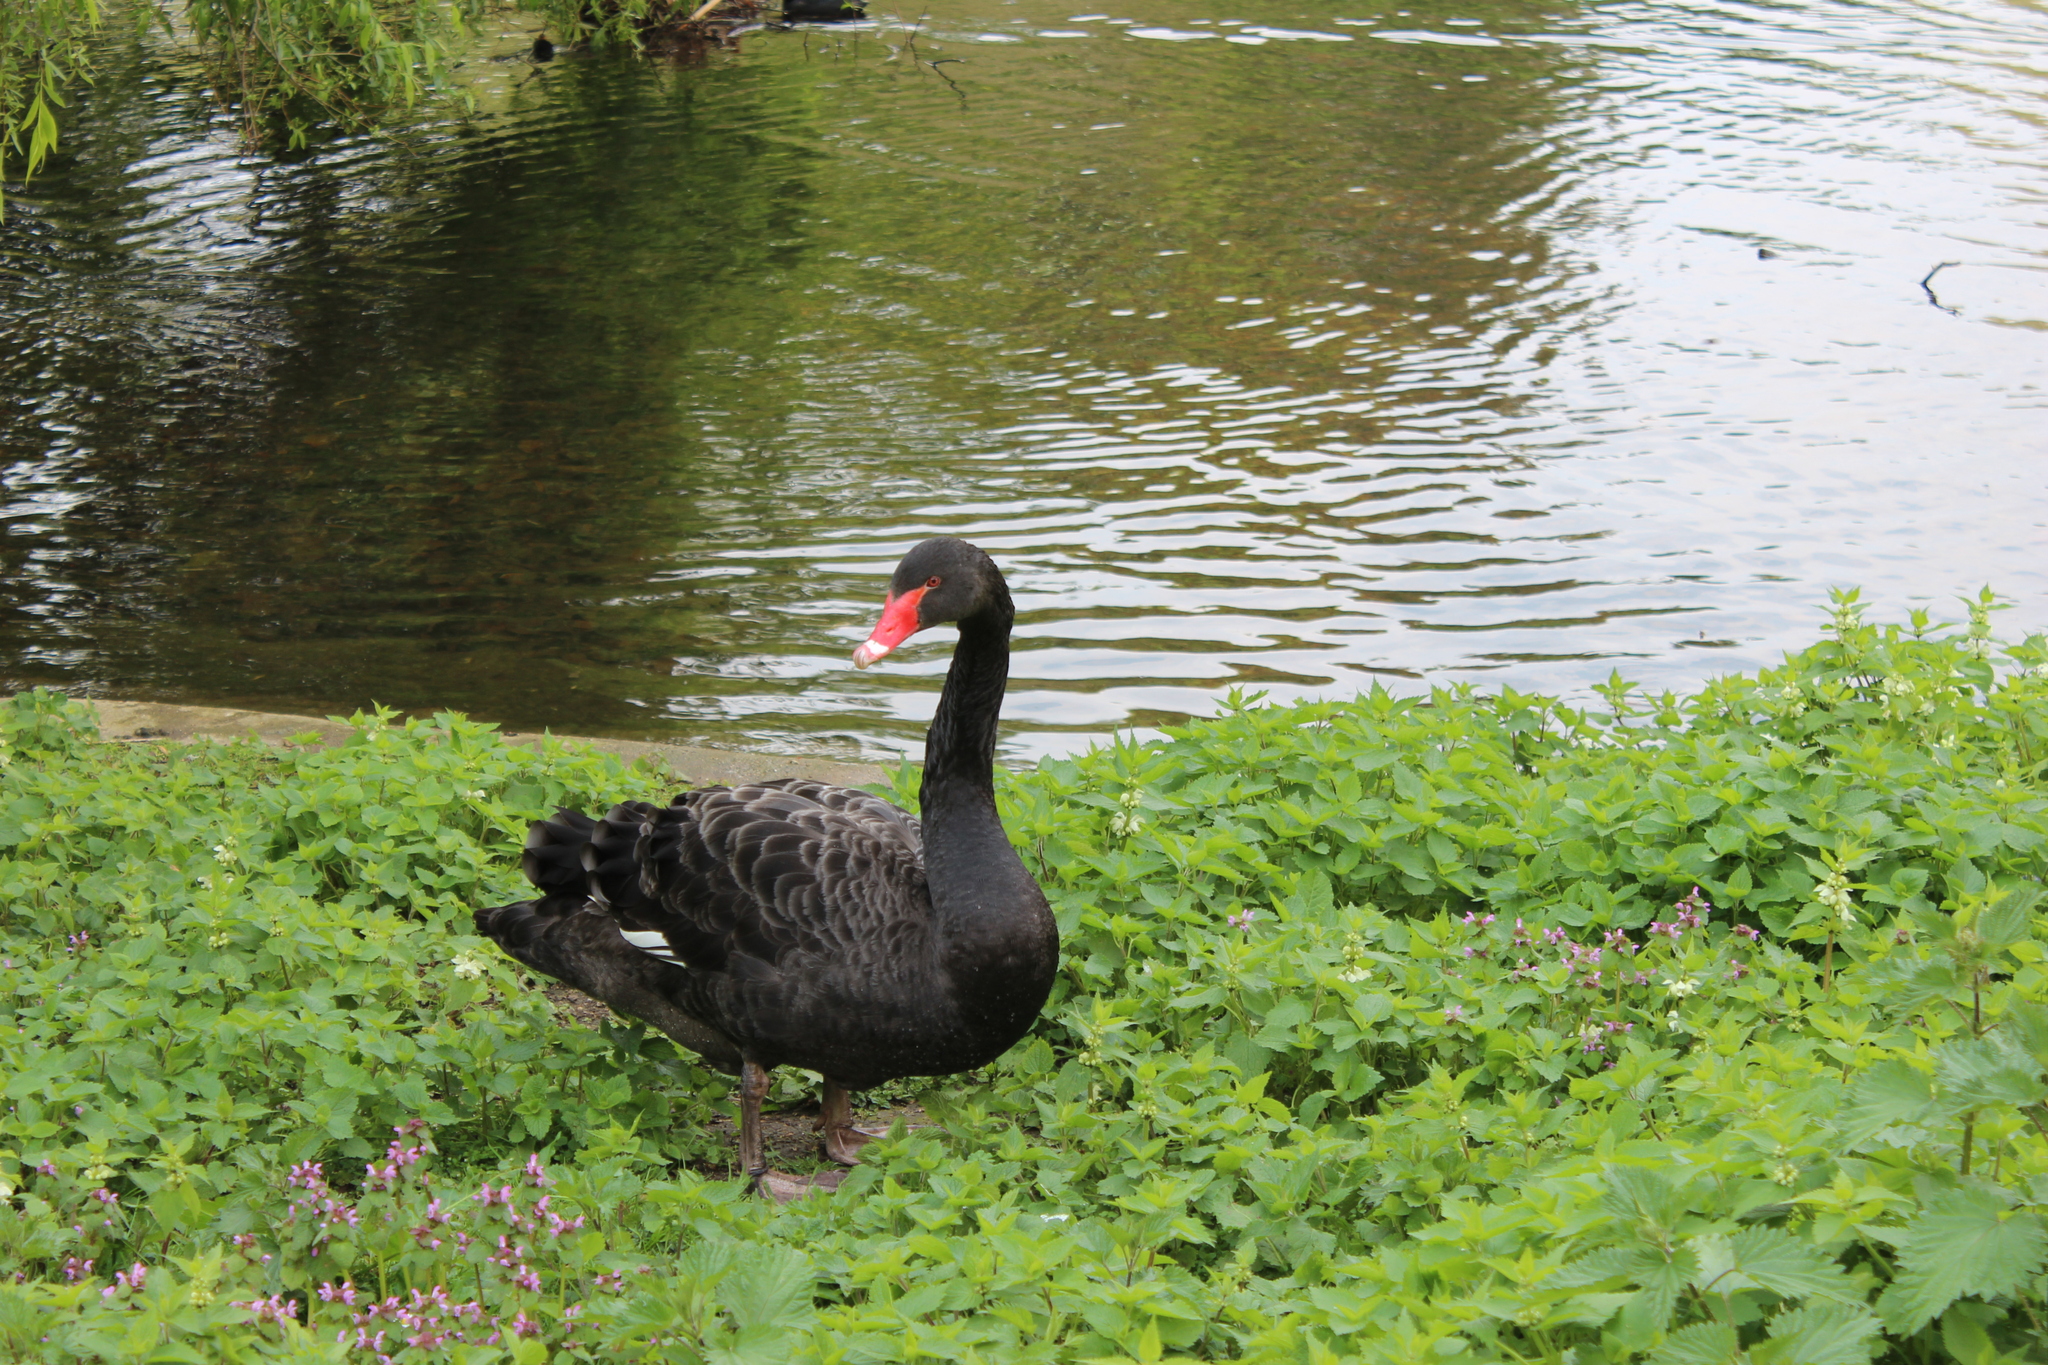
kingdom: Animalia
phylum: Chordata
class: Aves
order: Anseriformes
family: Anatidae
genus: Cygnus
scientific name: Cygnus atratus
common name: Black swan
